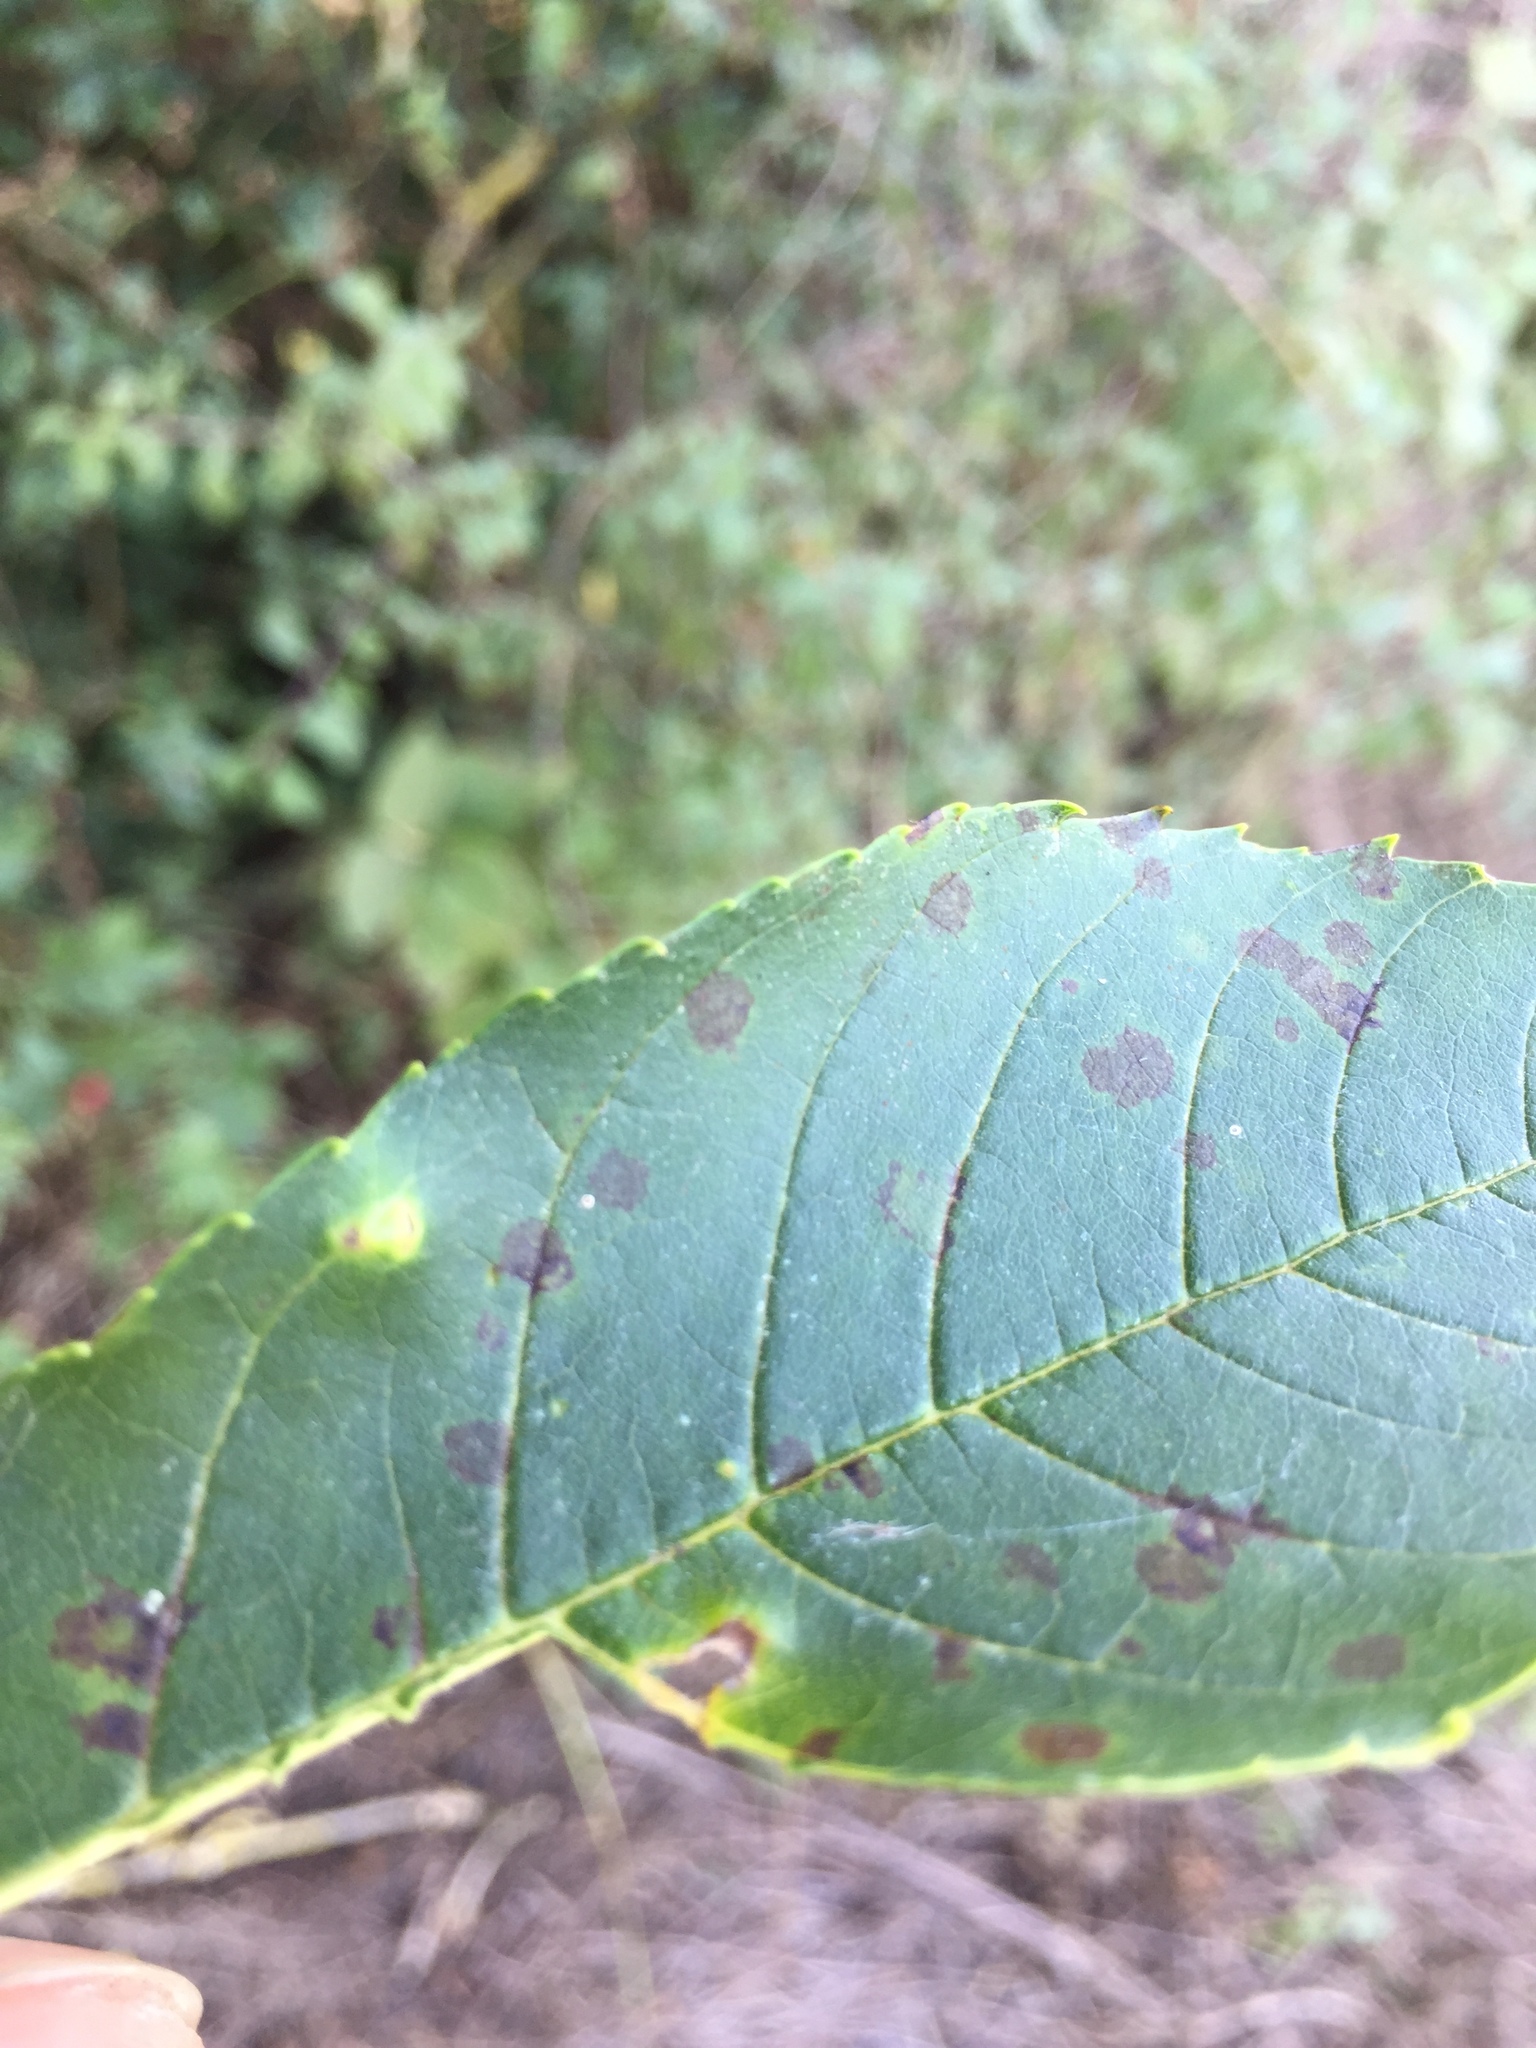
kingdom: Animalia
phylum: Arthropoda
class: Insecta
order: Diptera
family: Cecidomyiidae
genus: Dasineura
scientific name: Dasineura fraxinea
